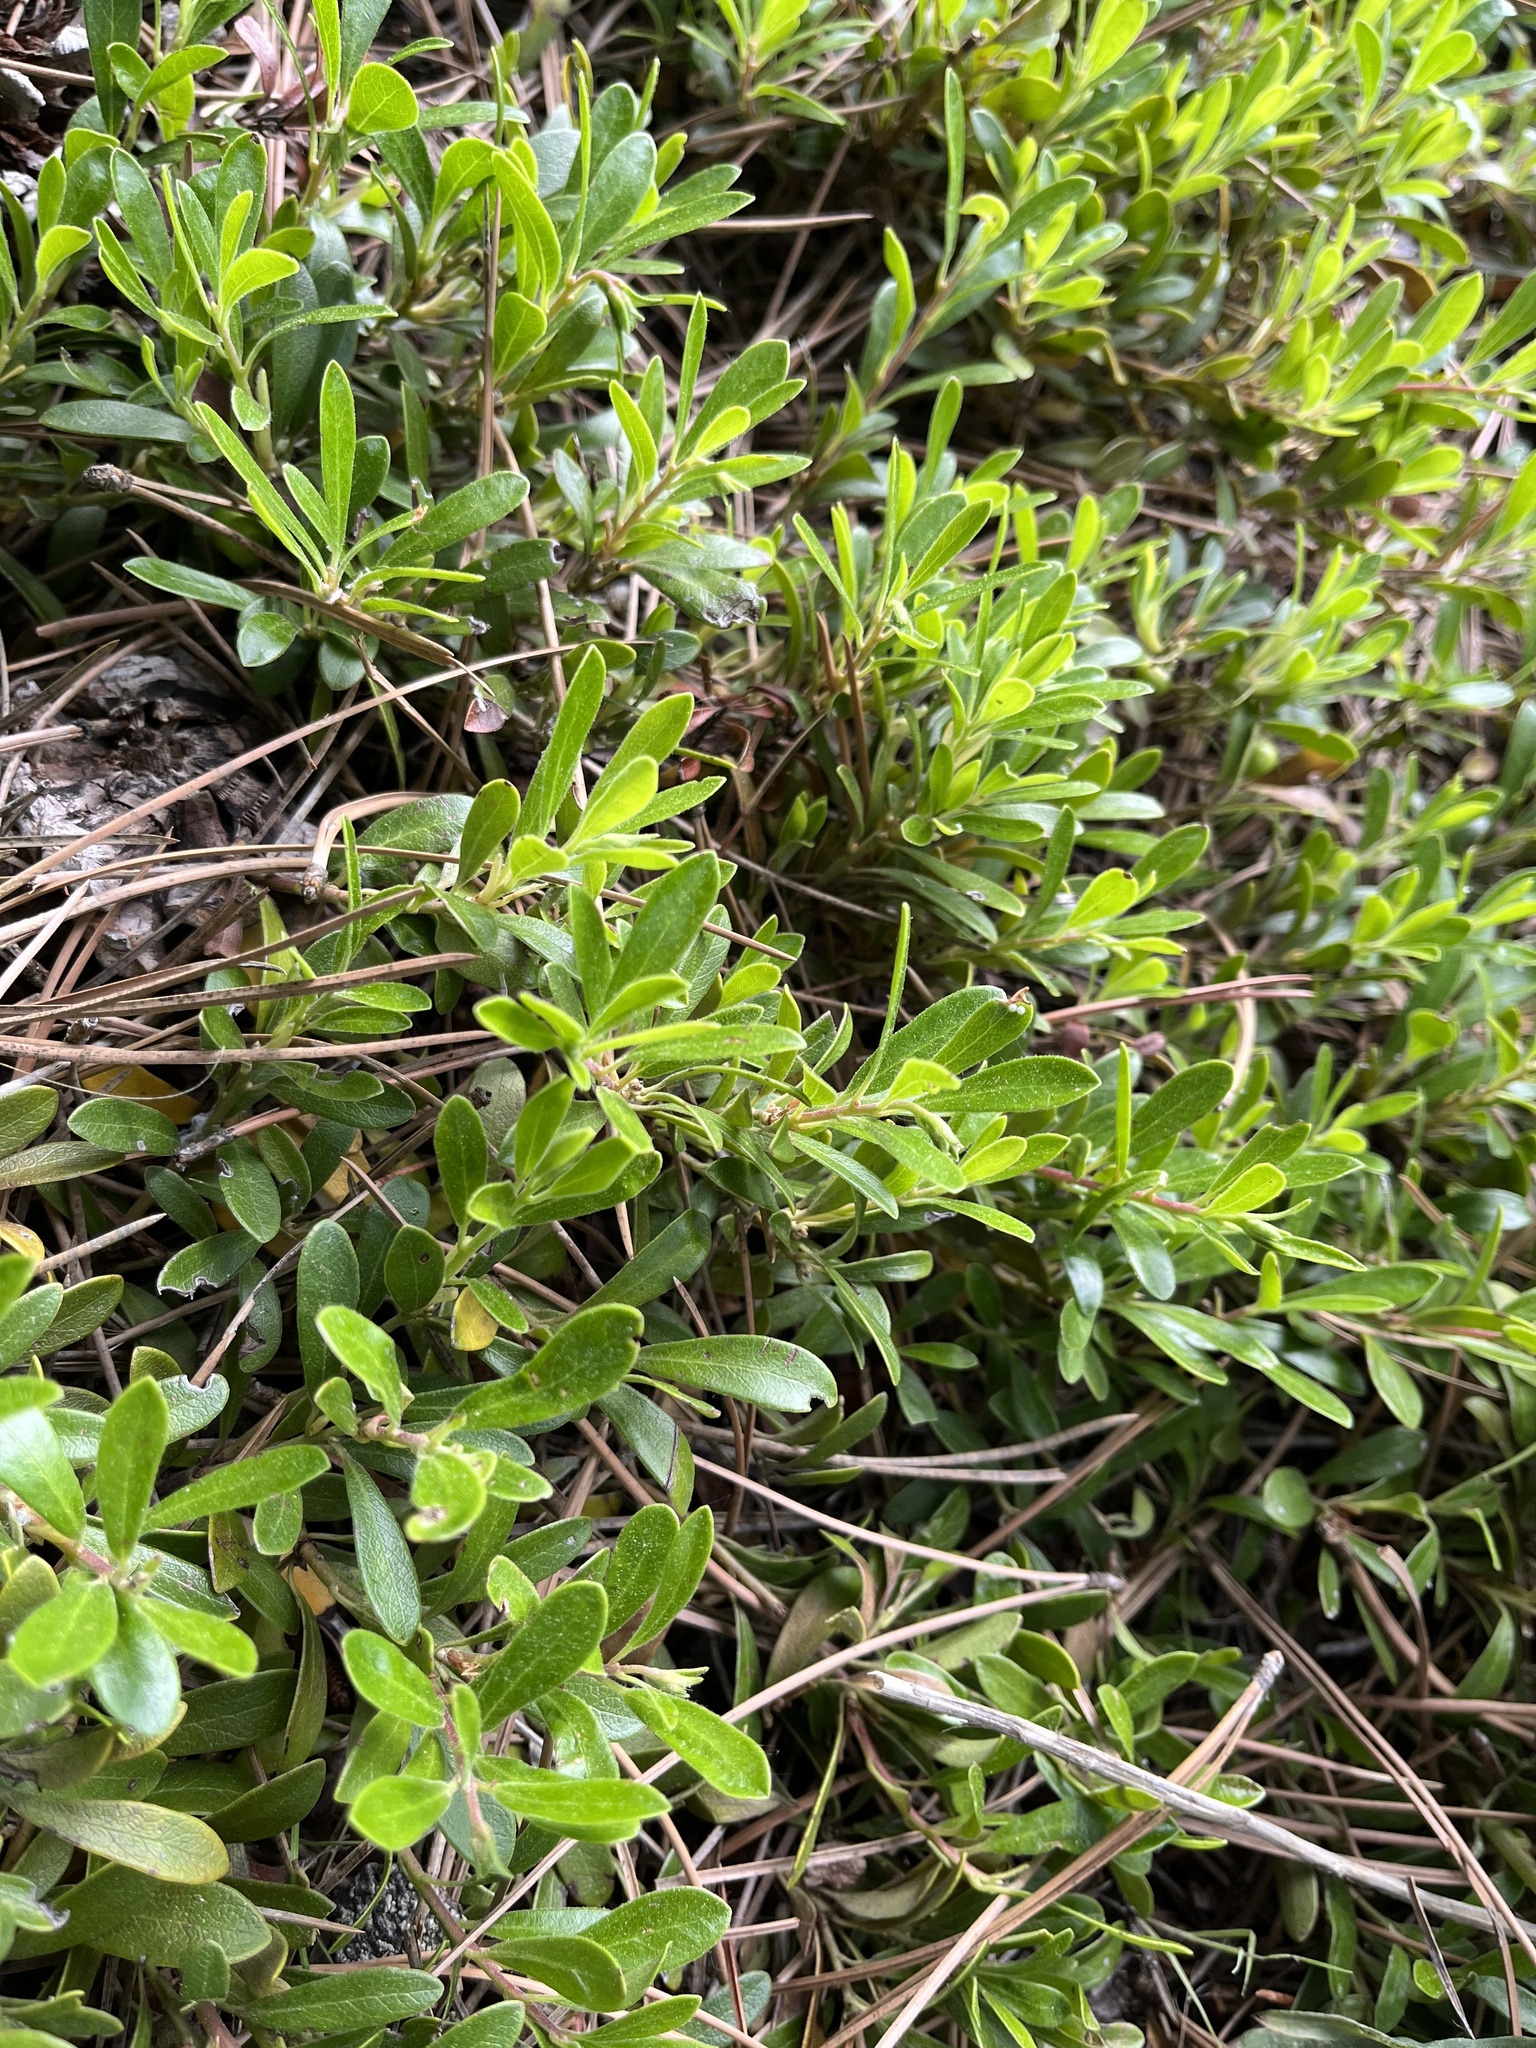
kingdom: Plantae
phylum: Tracheophyta
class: Magnoliopsida
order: Ericales
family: Ericaceae
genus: Arctostaphylos
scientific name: Arctostaphylos uva-ursi
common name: Bearberry
